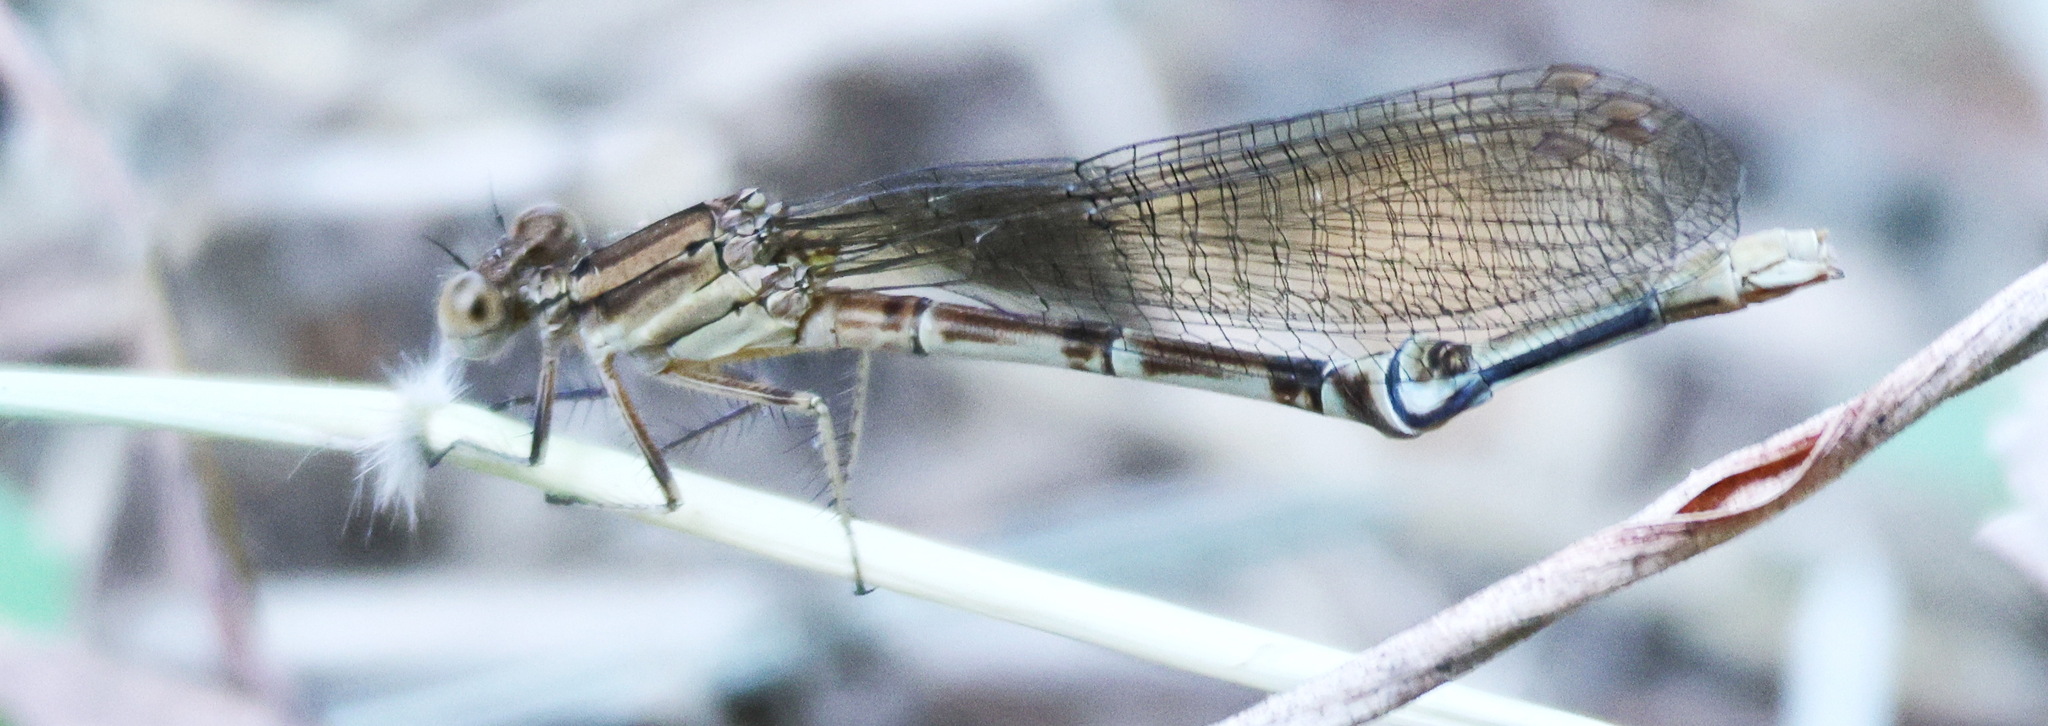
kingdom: Animalia
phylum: Arthropoda
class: Insecta
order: Odonata
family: Coenagrionidae
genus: Argia
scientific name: Argia sedula
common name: Blue-ringed dancer
